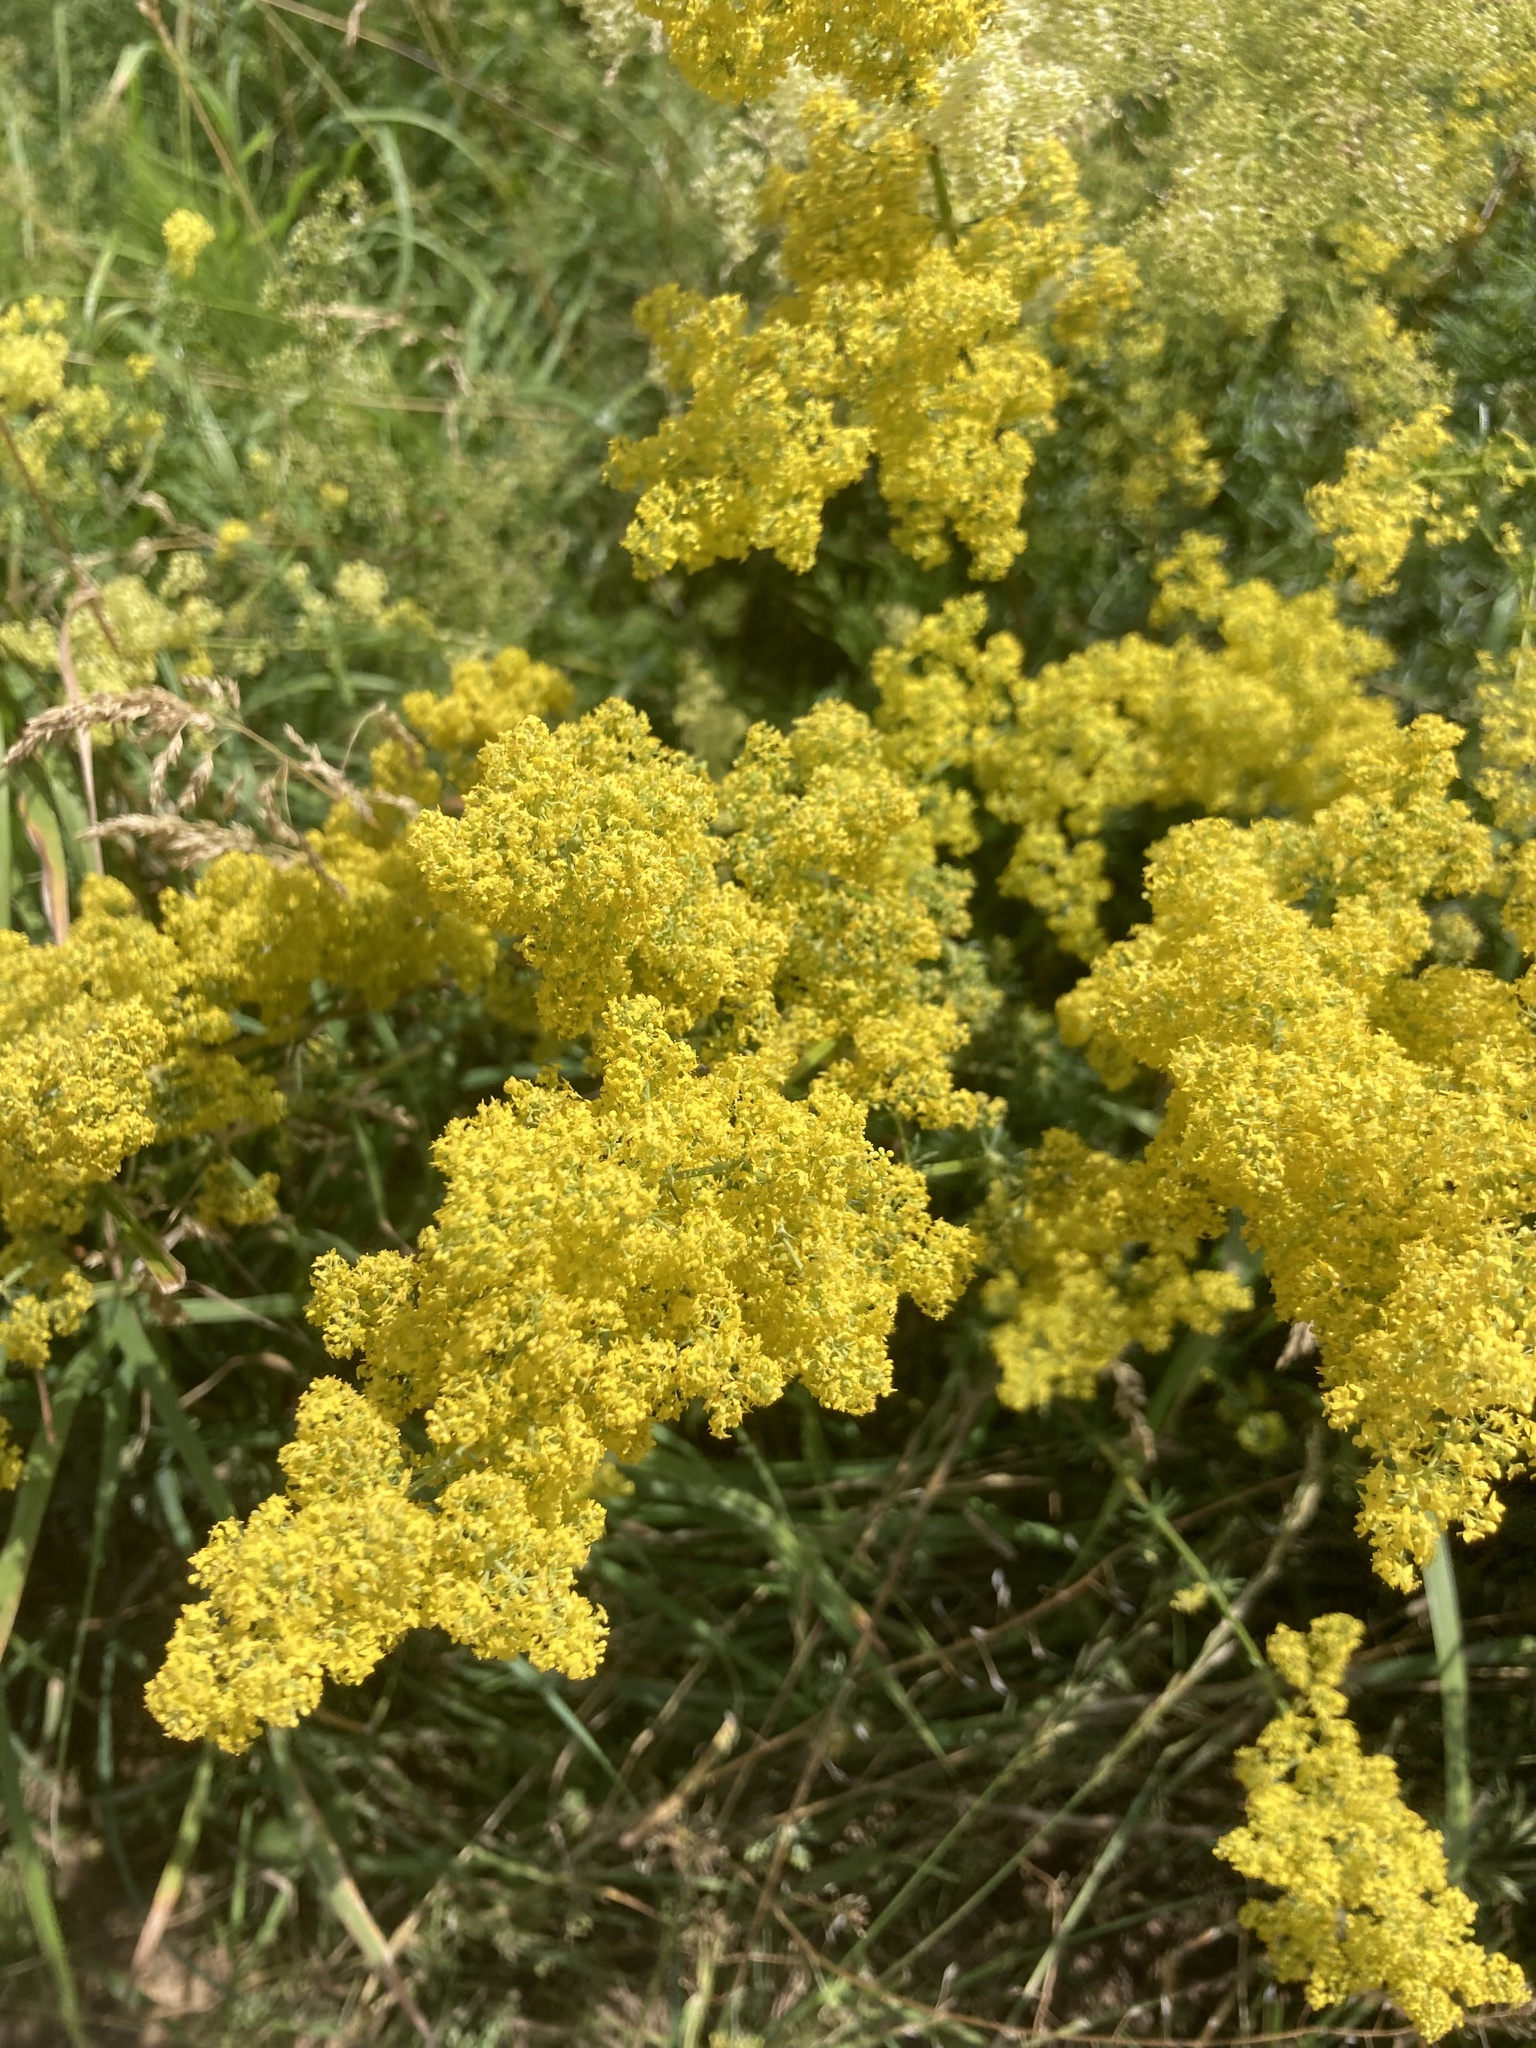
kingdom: Plantae
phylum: Tracheophyta
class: Magnoliopsida
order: Gentianales
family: Rubiaceae
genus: Galium
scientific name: Galium verum
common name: Lady's bedstraw
